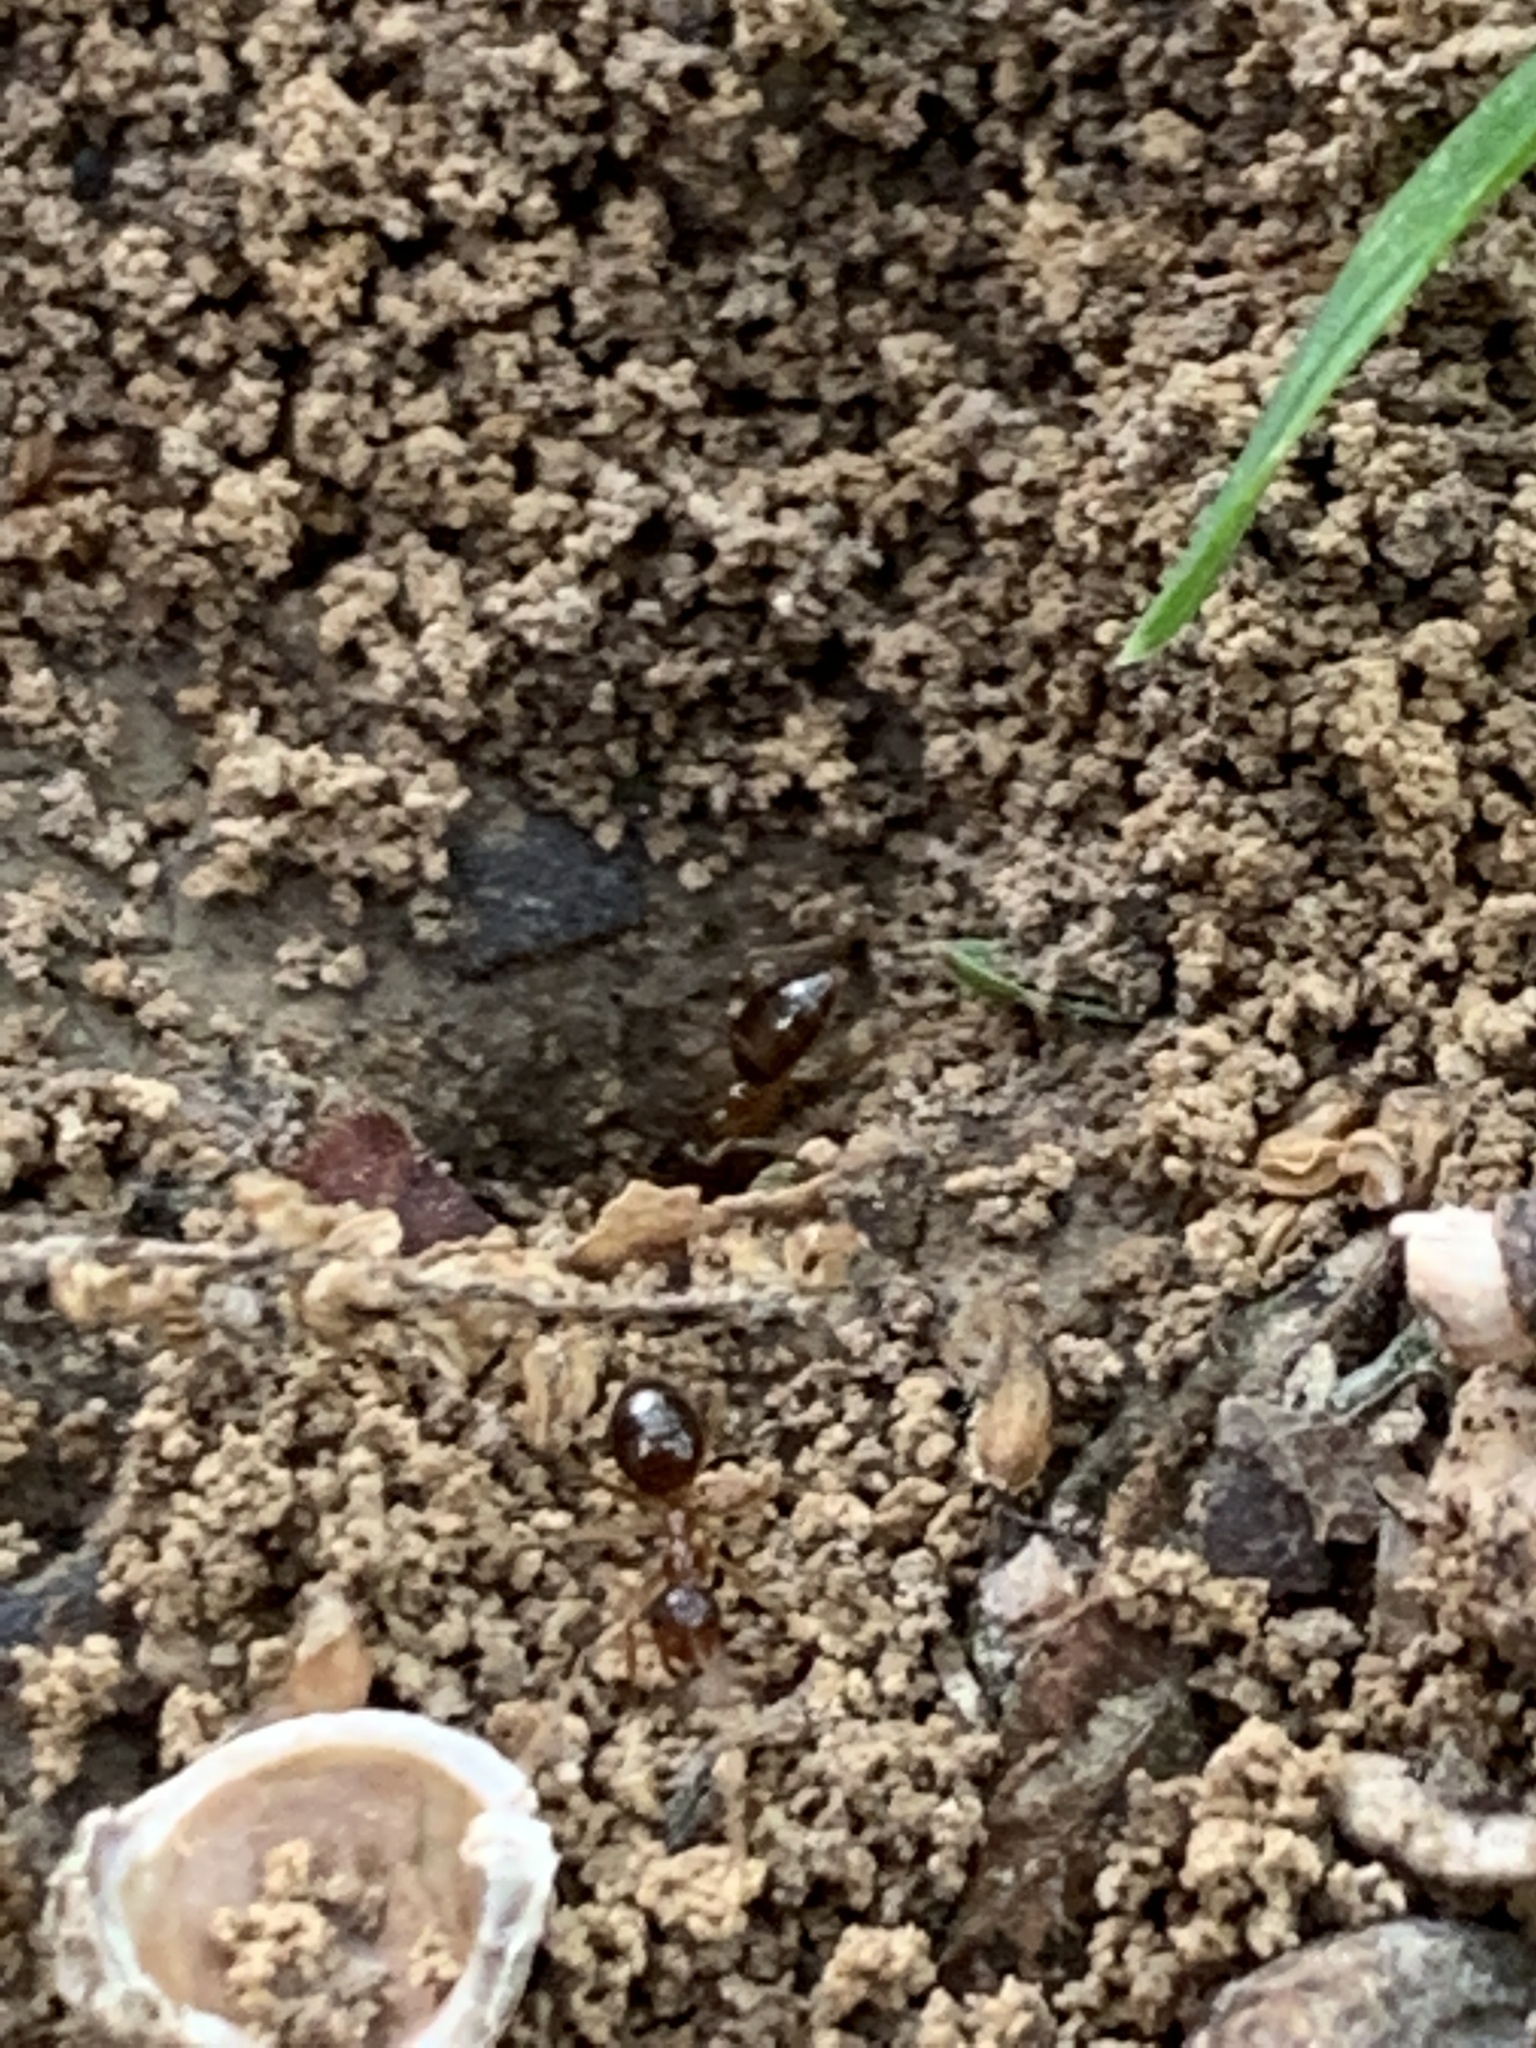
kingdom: Animalia
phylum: Arthropoda
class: Insecta
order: Hymenoptera
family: Formicidae
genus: Prenolepis
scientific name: Prenolepis imparis
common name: Small honey ant
